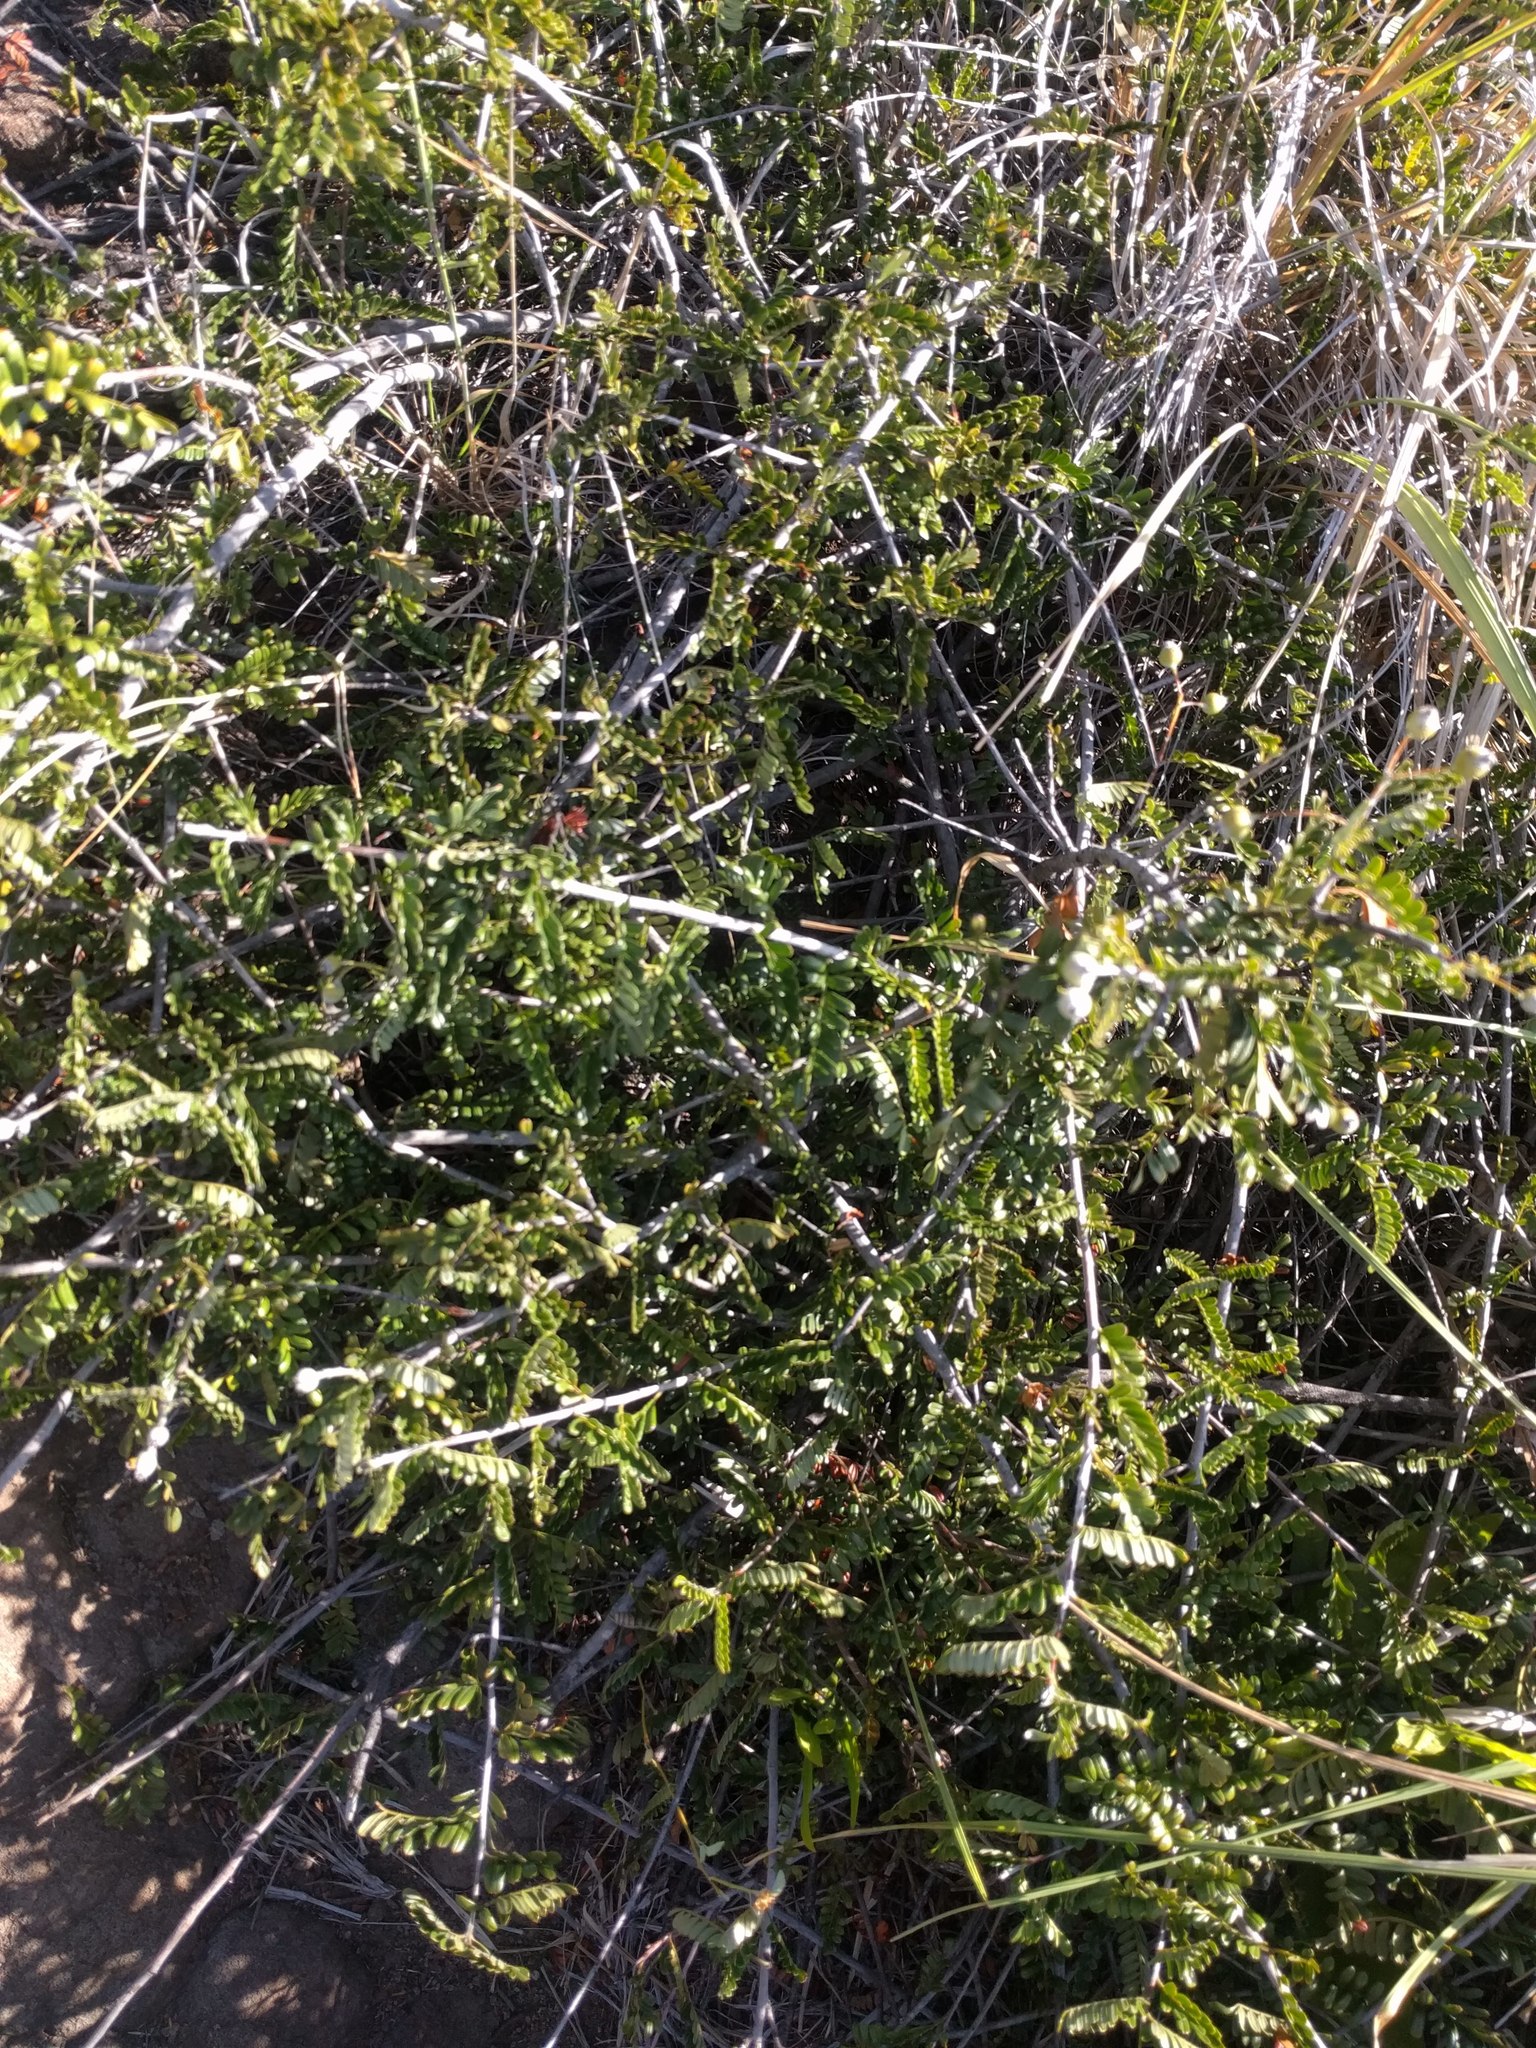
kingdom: Plantae
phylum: Tracheophyta
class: Magnoliopsida
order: Rosales
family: Rosaceae
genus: Osteomeles
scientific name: Osteomeles anthyllidifolia
